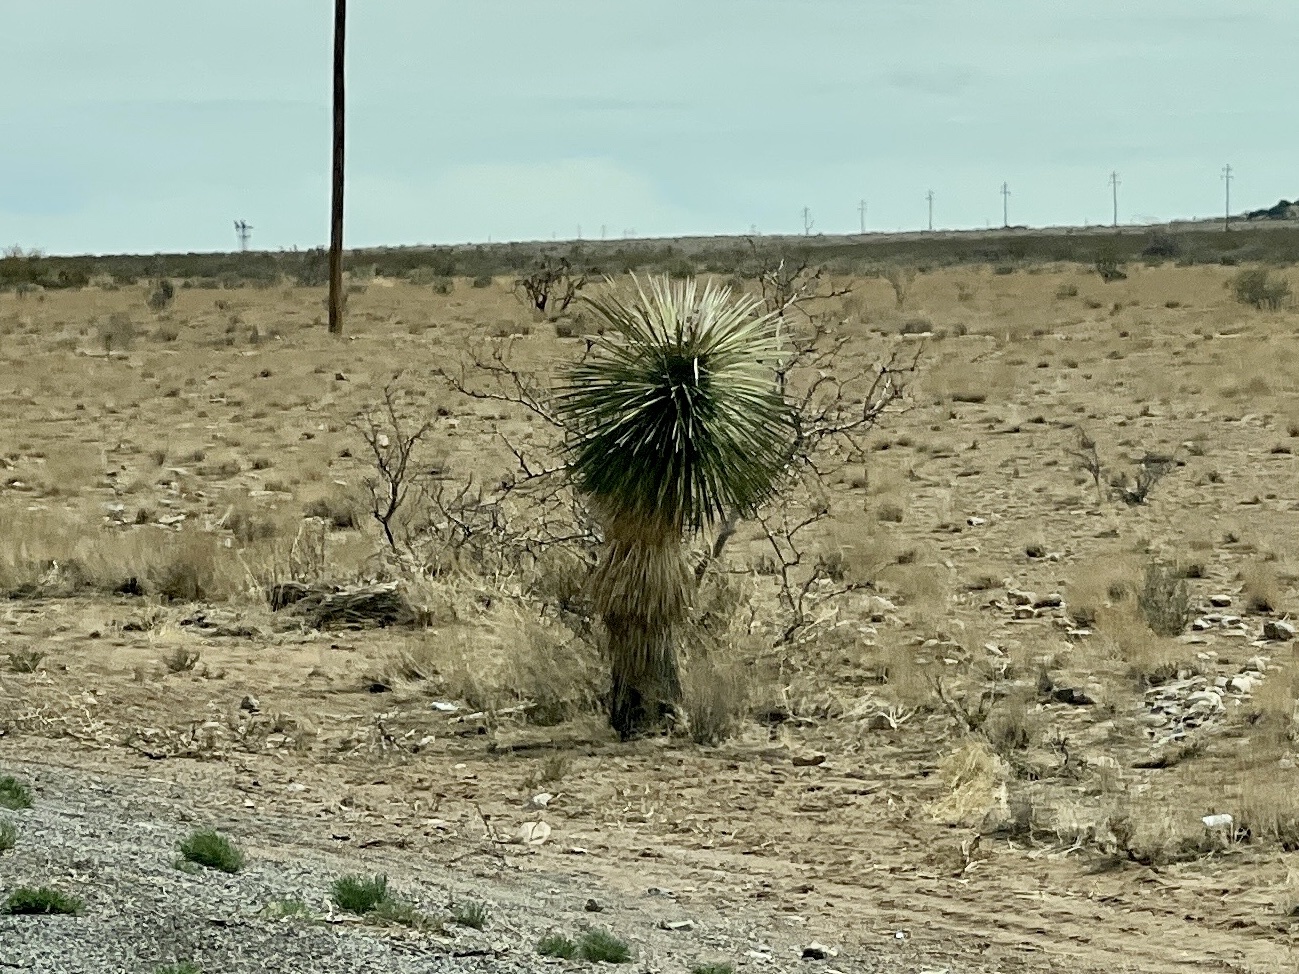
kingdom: Plantae
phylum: Tracheophyta
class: Liliopsida
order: Asparagales
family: Asparagaceae
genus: Yucca
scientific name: Yucca elata
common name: Palmella
